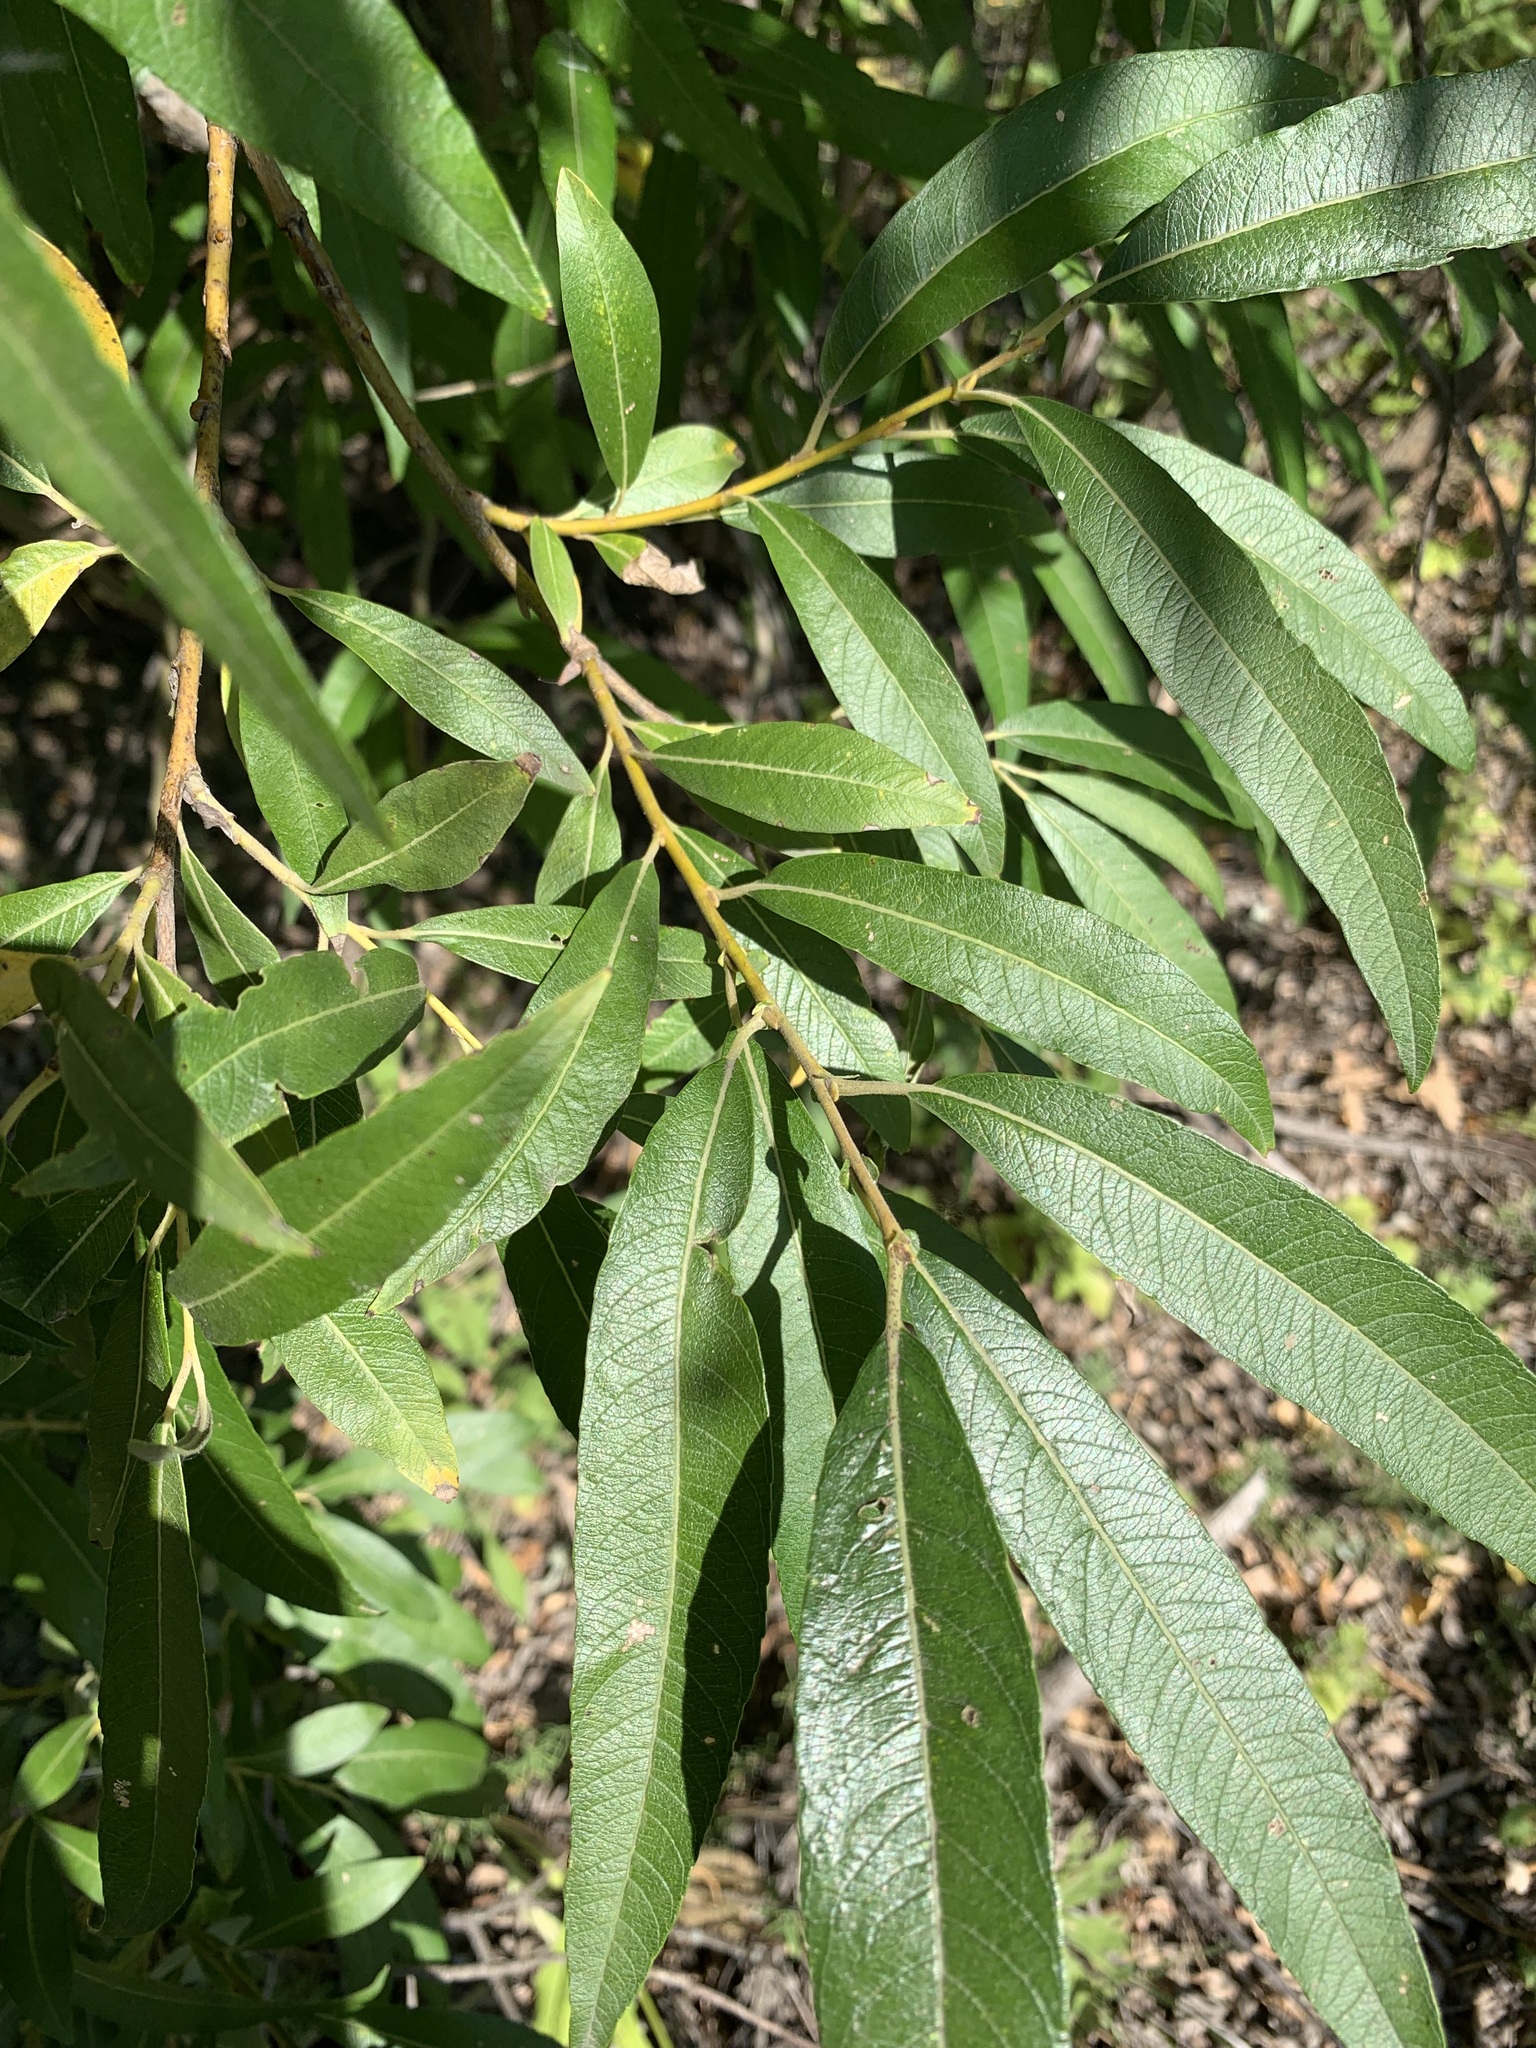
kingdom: Plantae
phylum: Tracheophyta
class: Magnoliopsida
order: Malpighiales
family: Salicaceae
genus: Salix
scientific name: Salix gmelinii
